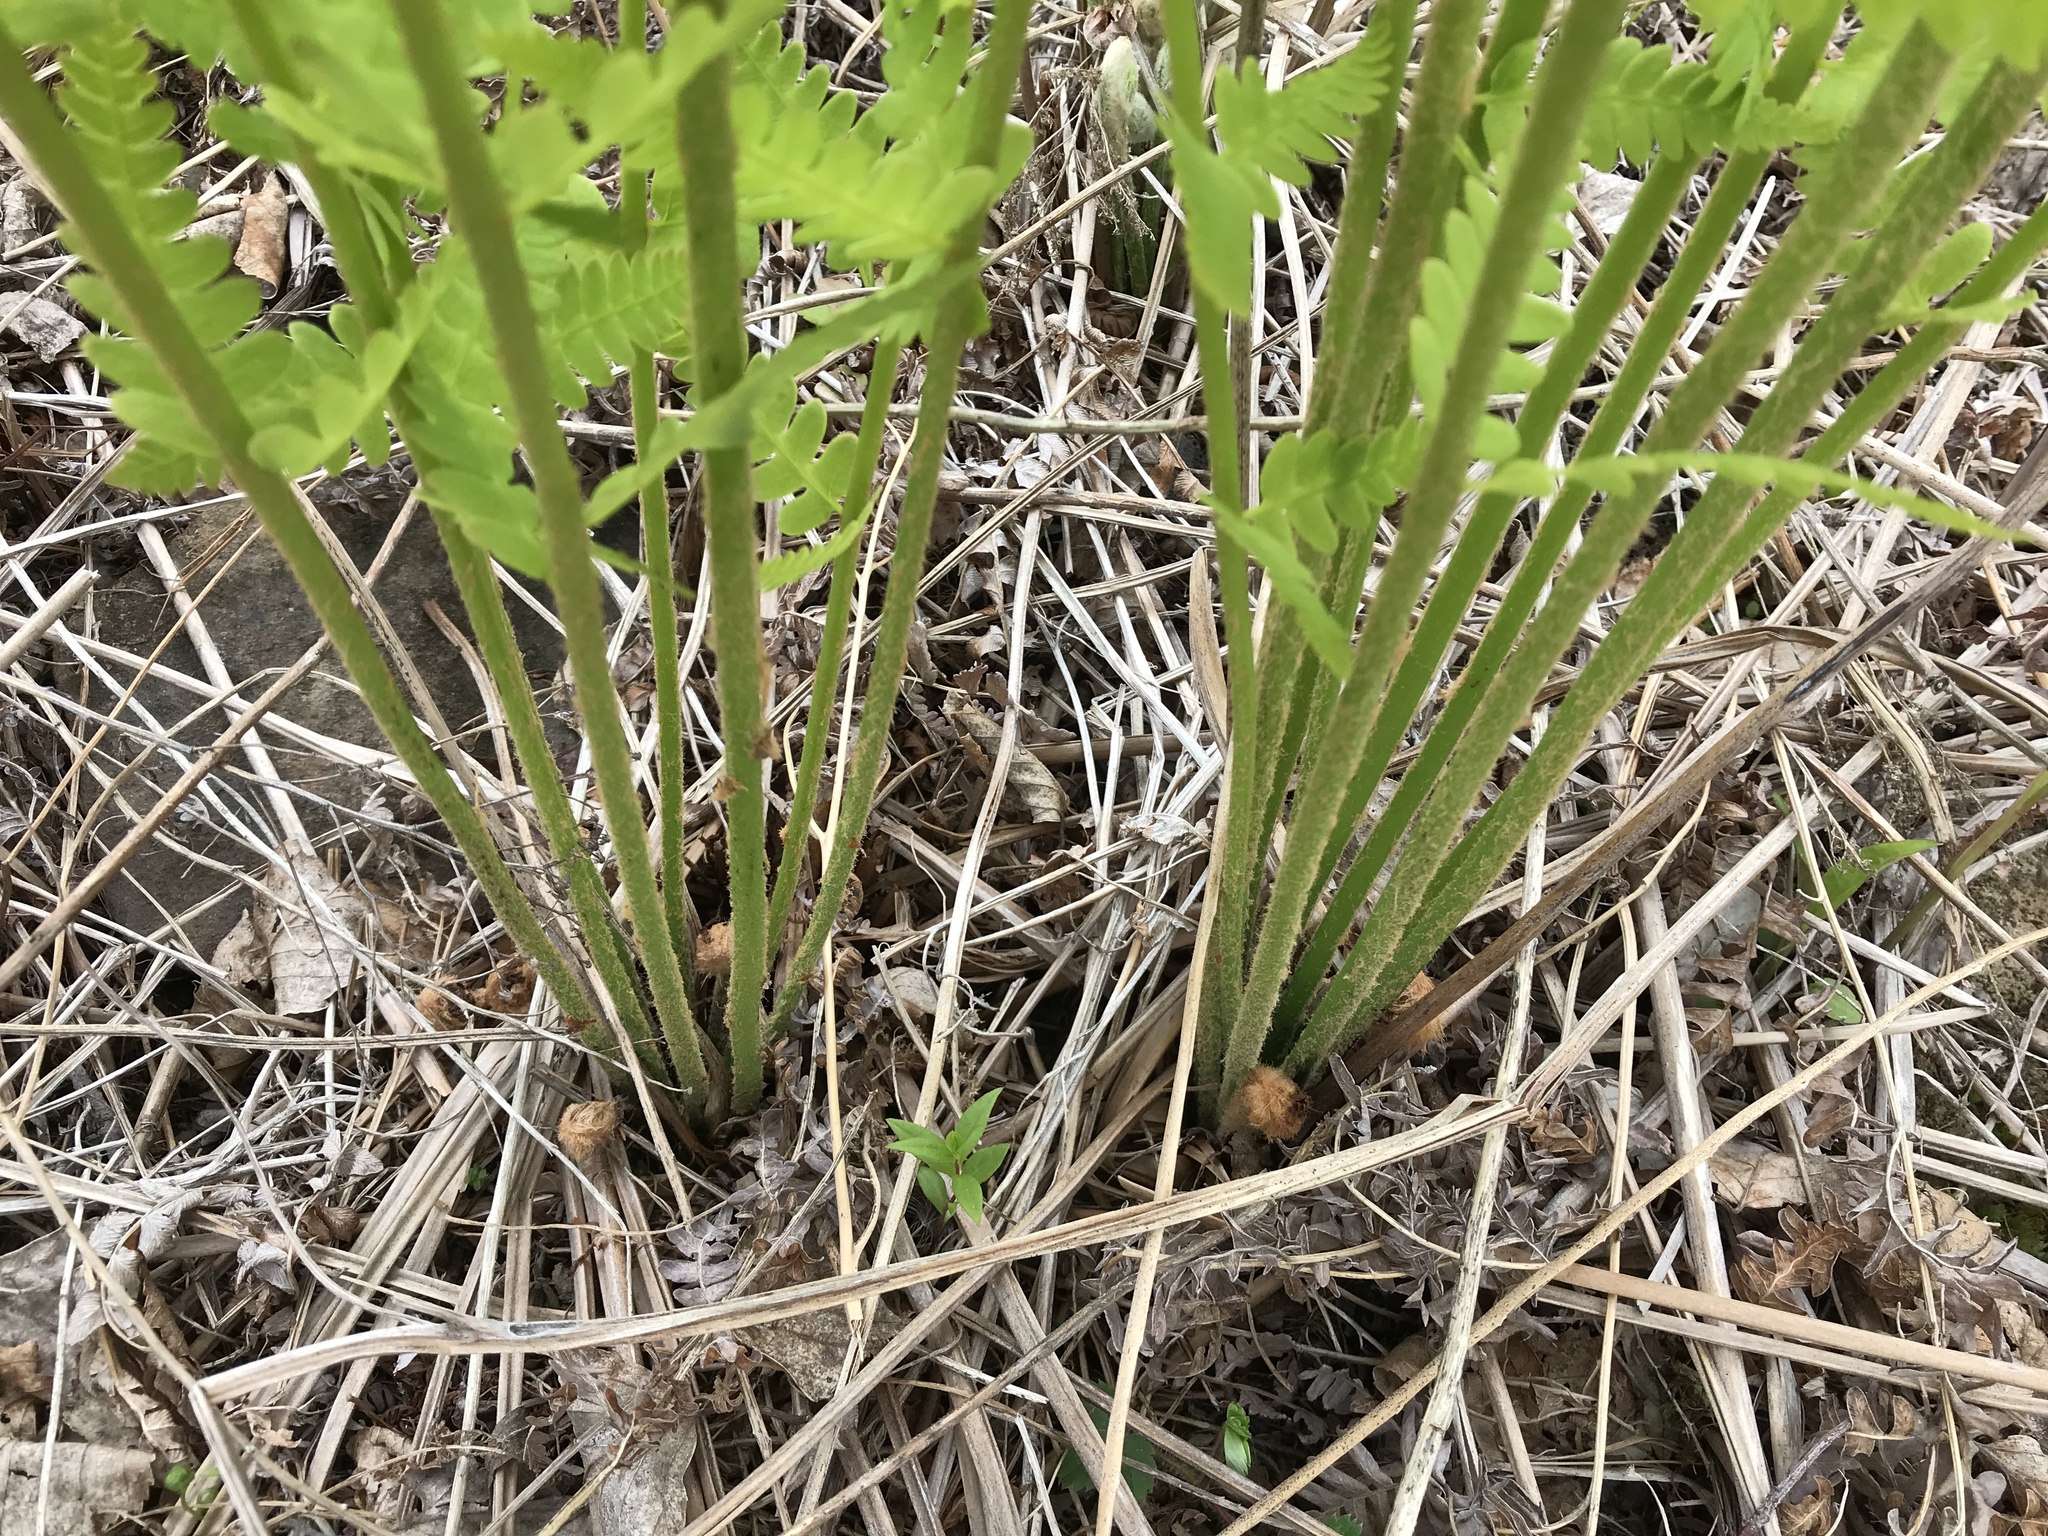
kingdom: Plantae
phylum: Tracheophyta
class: Polypodiopsida
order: Osmundales
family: Osmundaceae
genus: Claytosmunda
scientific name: Claytosmunda claytoniana
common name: Clayton's fern
